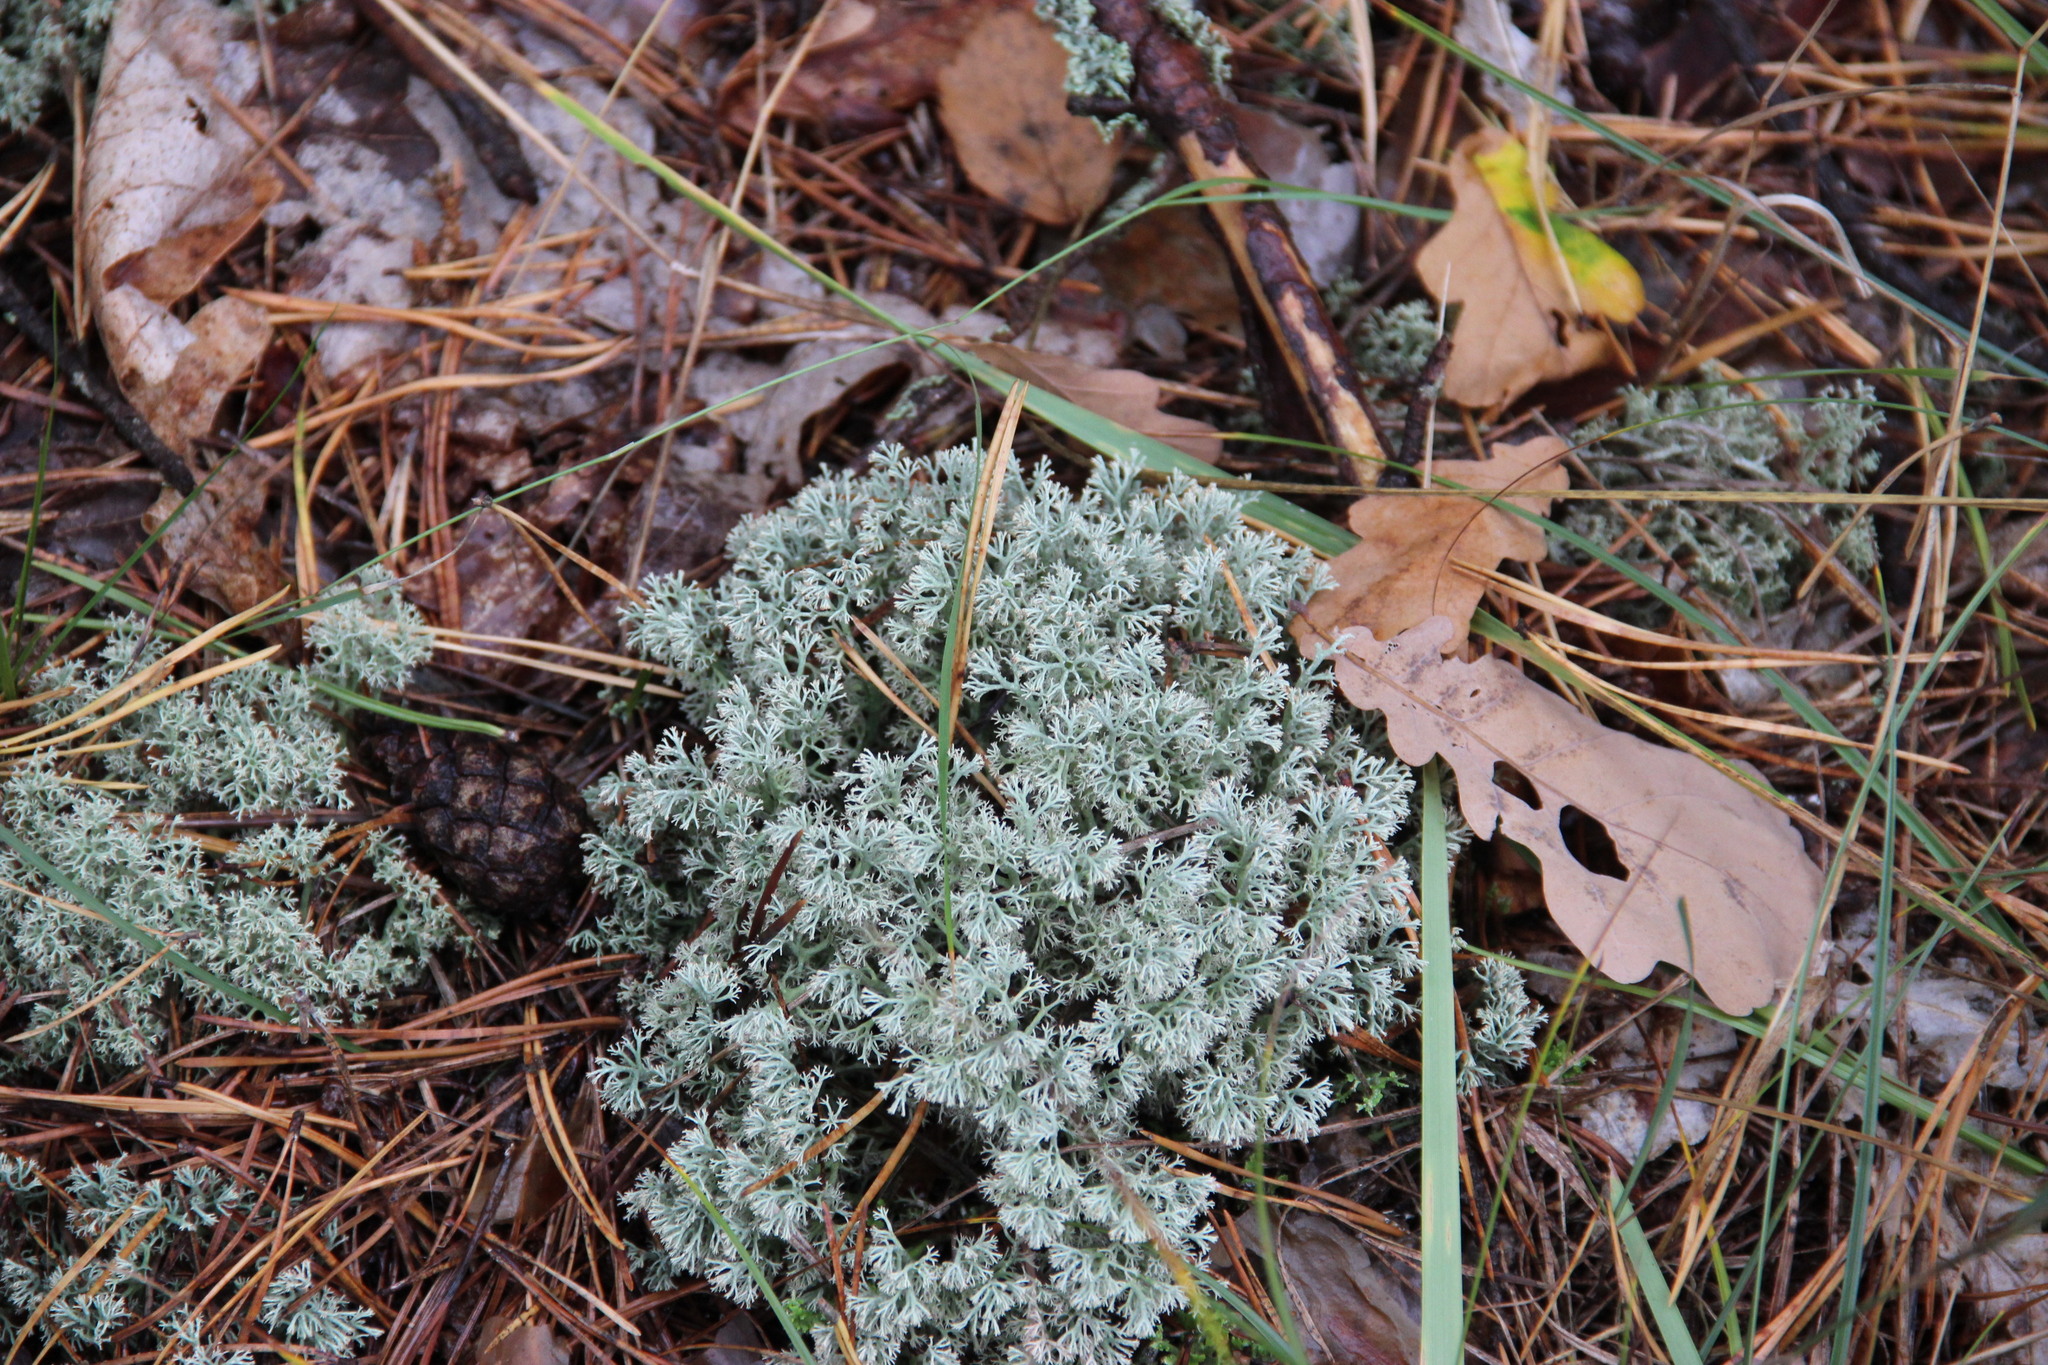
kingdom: Fungi
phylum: Ascomycota
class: Lecanoromycetes
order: Lecanorales
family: Cladoniaceae
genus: Cladonia
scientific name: Cladonia arbuscula
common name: Reindeer lichen
